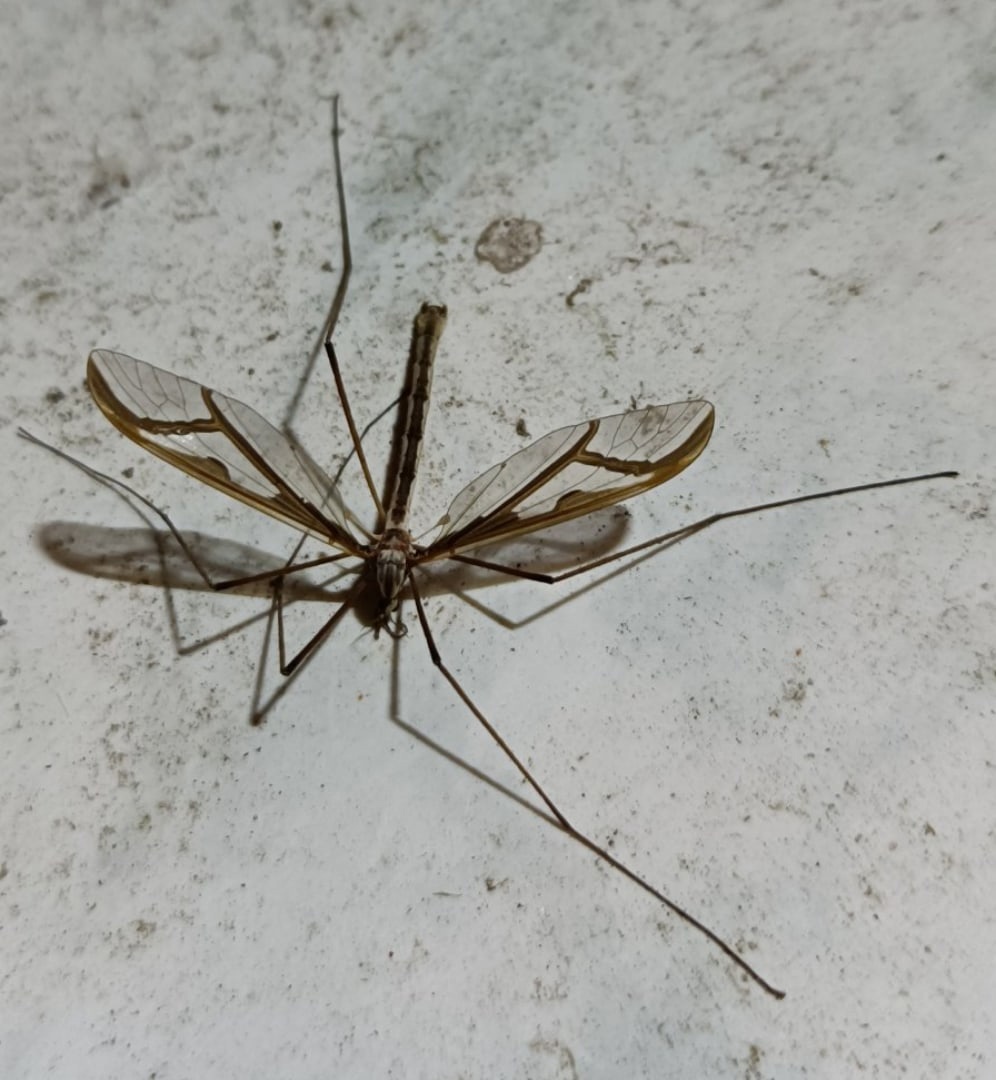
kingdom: Animalia
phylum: Arthropoda
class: Insecta
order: Diptera
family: Pediciidae
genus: Pedicia
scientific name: Pedicia rivosa
